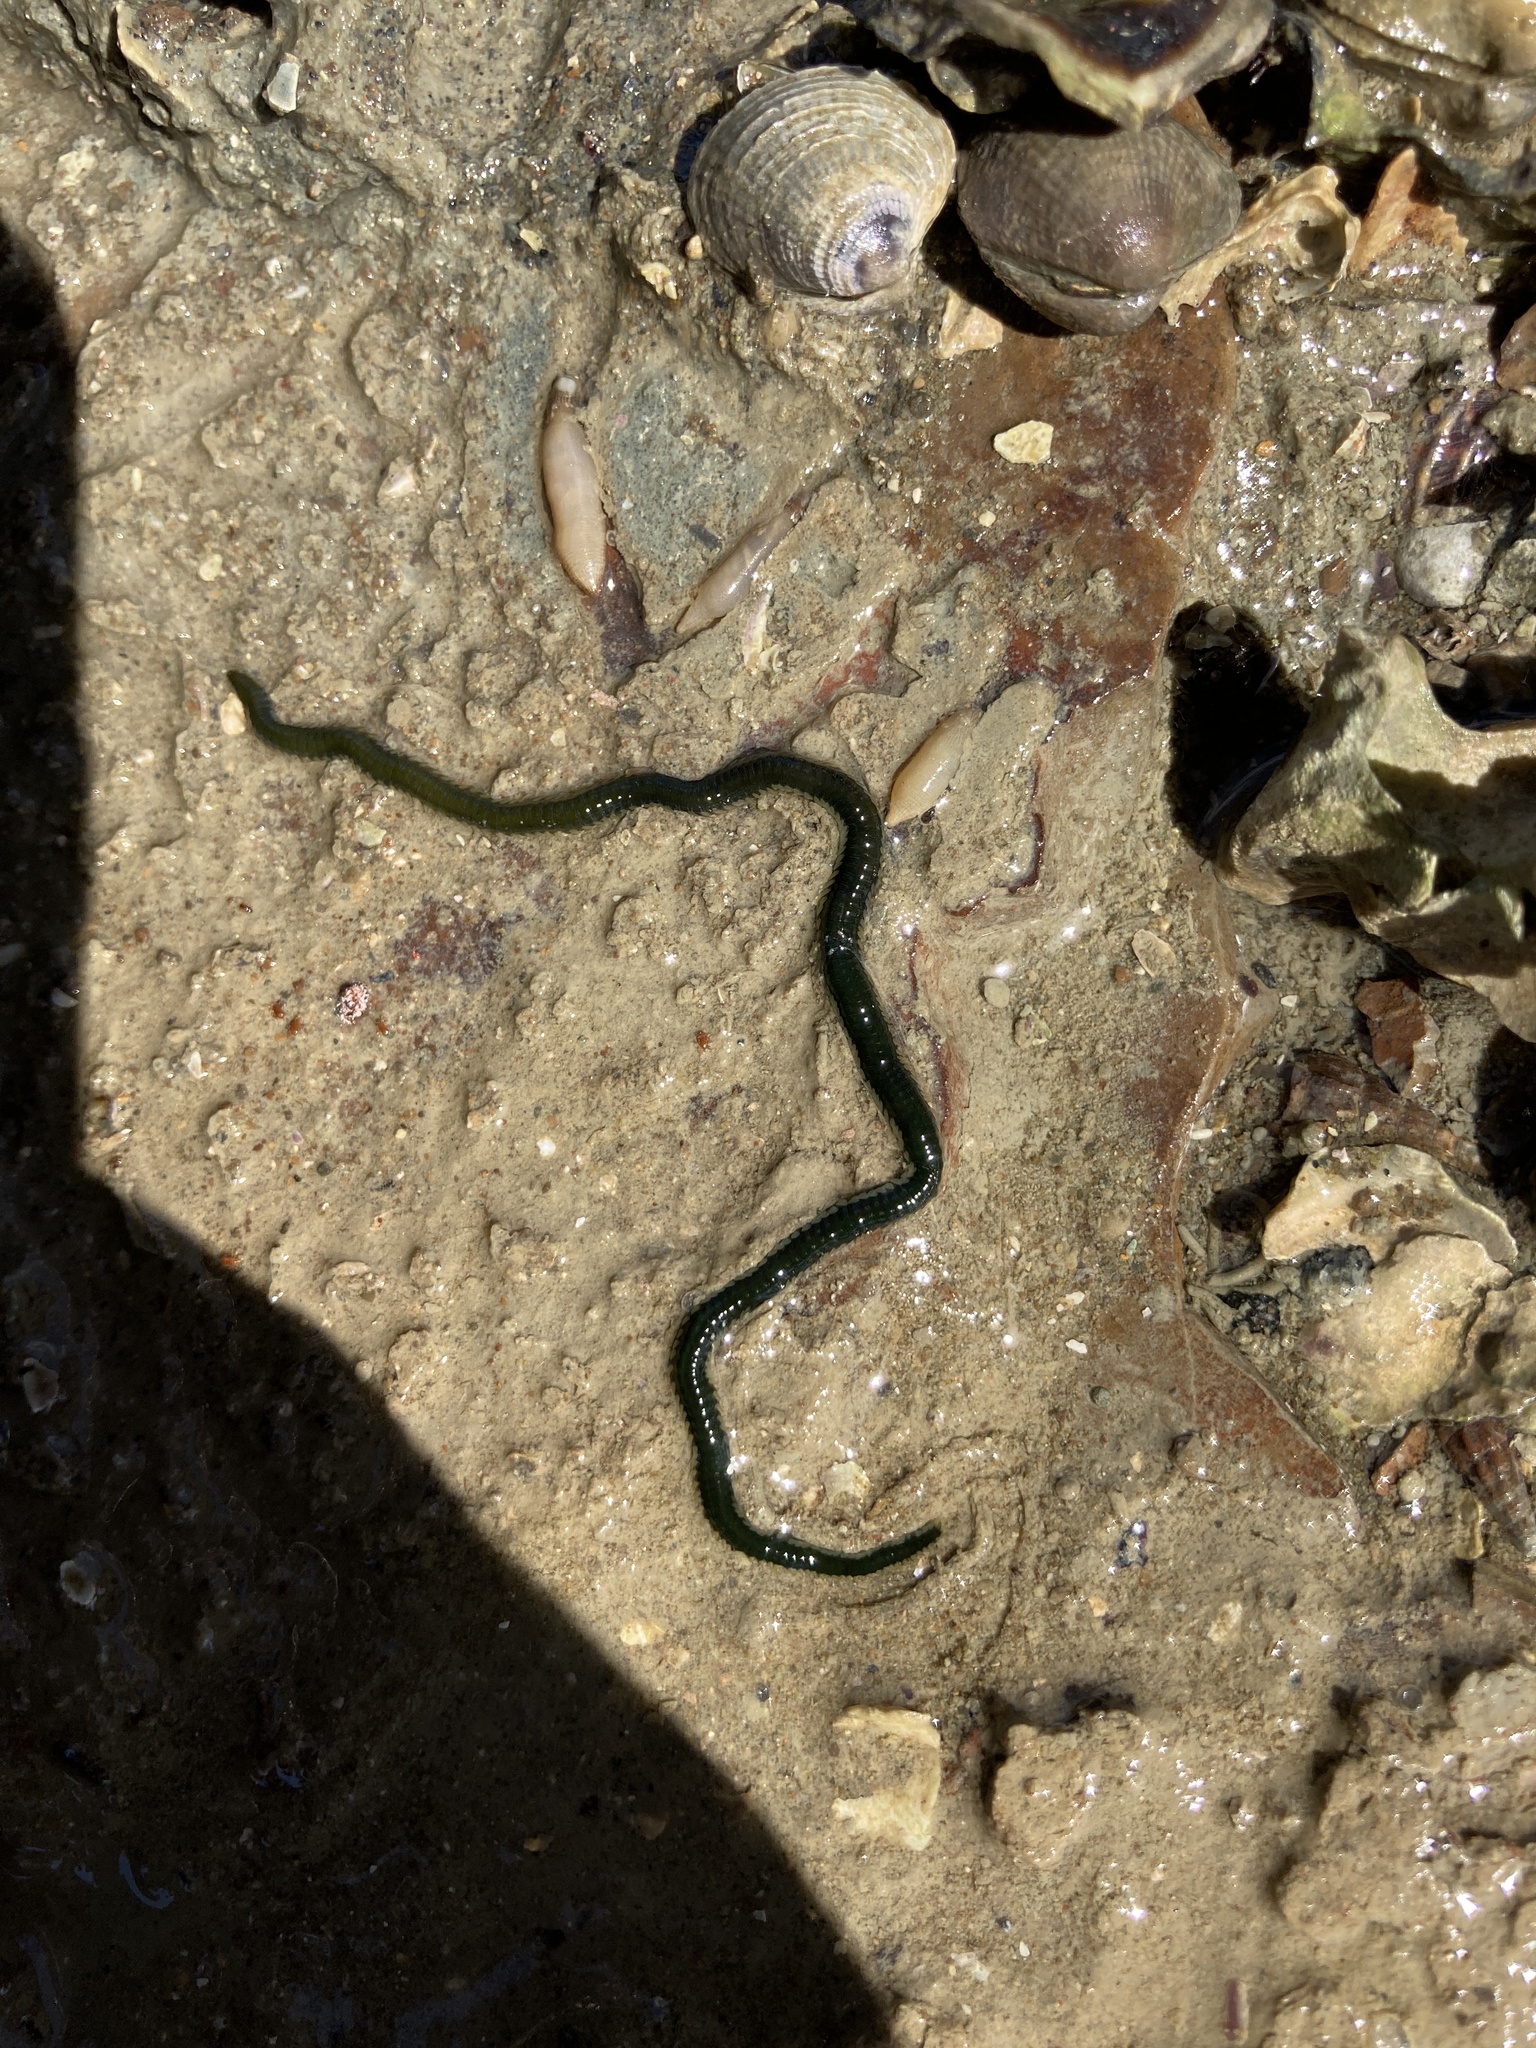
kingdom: Animalia
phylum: Annelida
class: Polychaeta
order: Phyllodocida
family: Phyllodocidae
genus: Eulalia
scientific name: Eulalia microphylla
